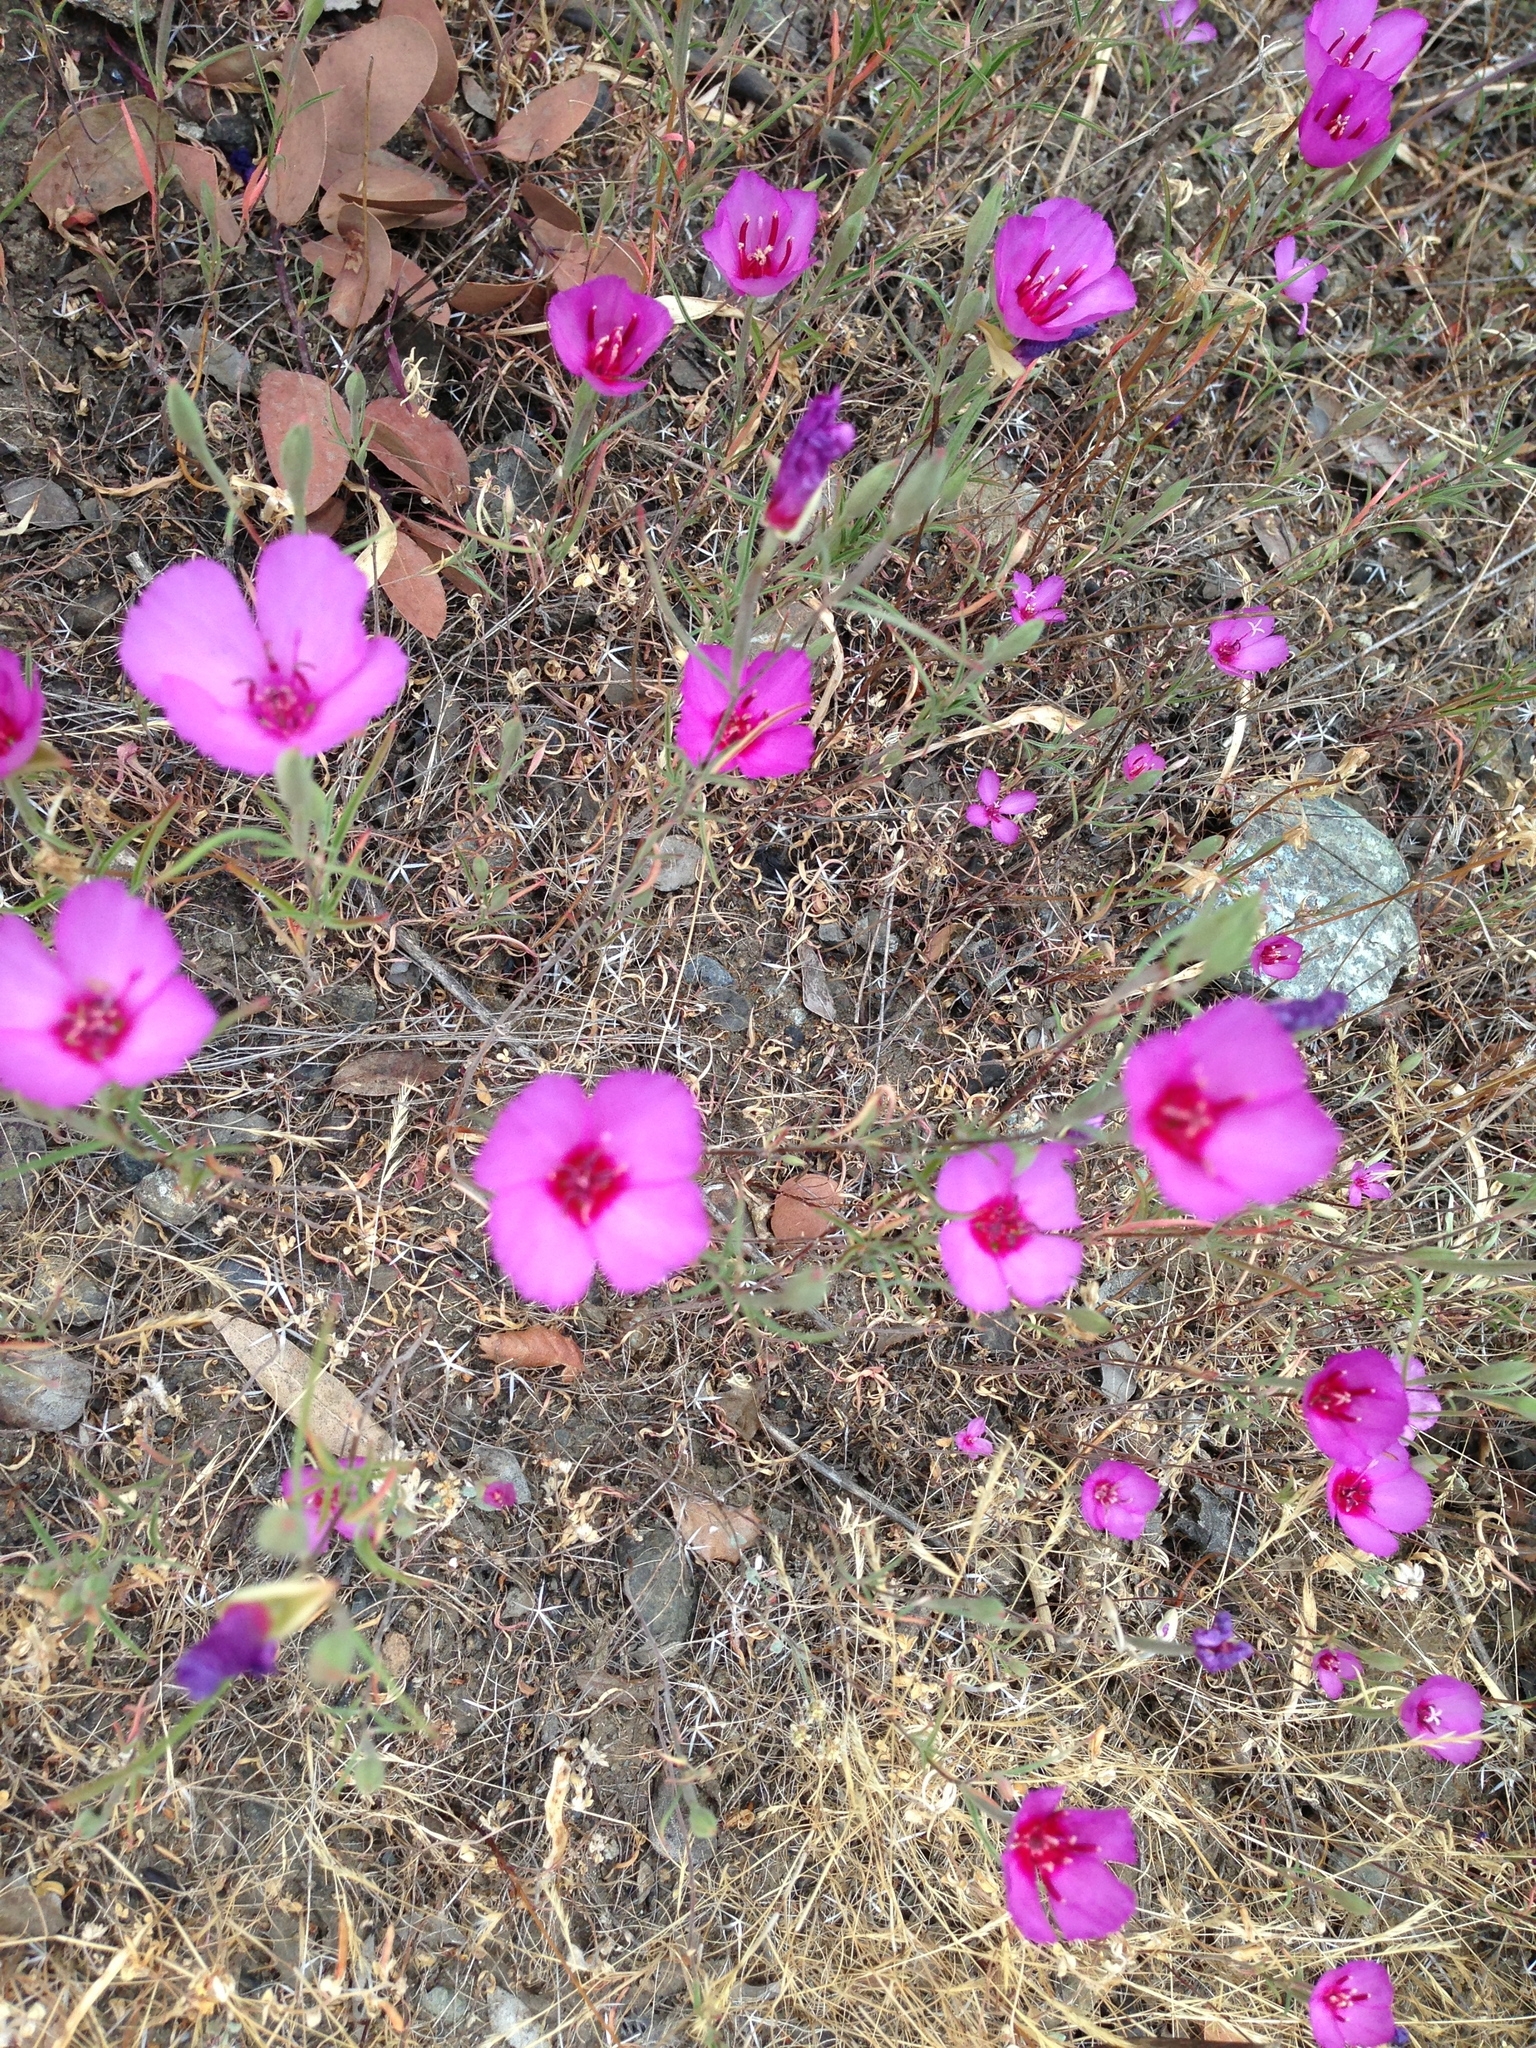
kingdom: Plantae
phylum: Tracheophyta
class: Magnoliopsida
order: Myrtales
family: Onagraceae
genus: Clarkia
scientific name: Clarkia rubicunda
